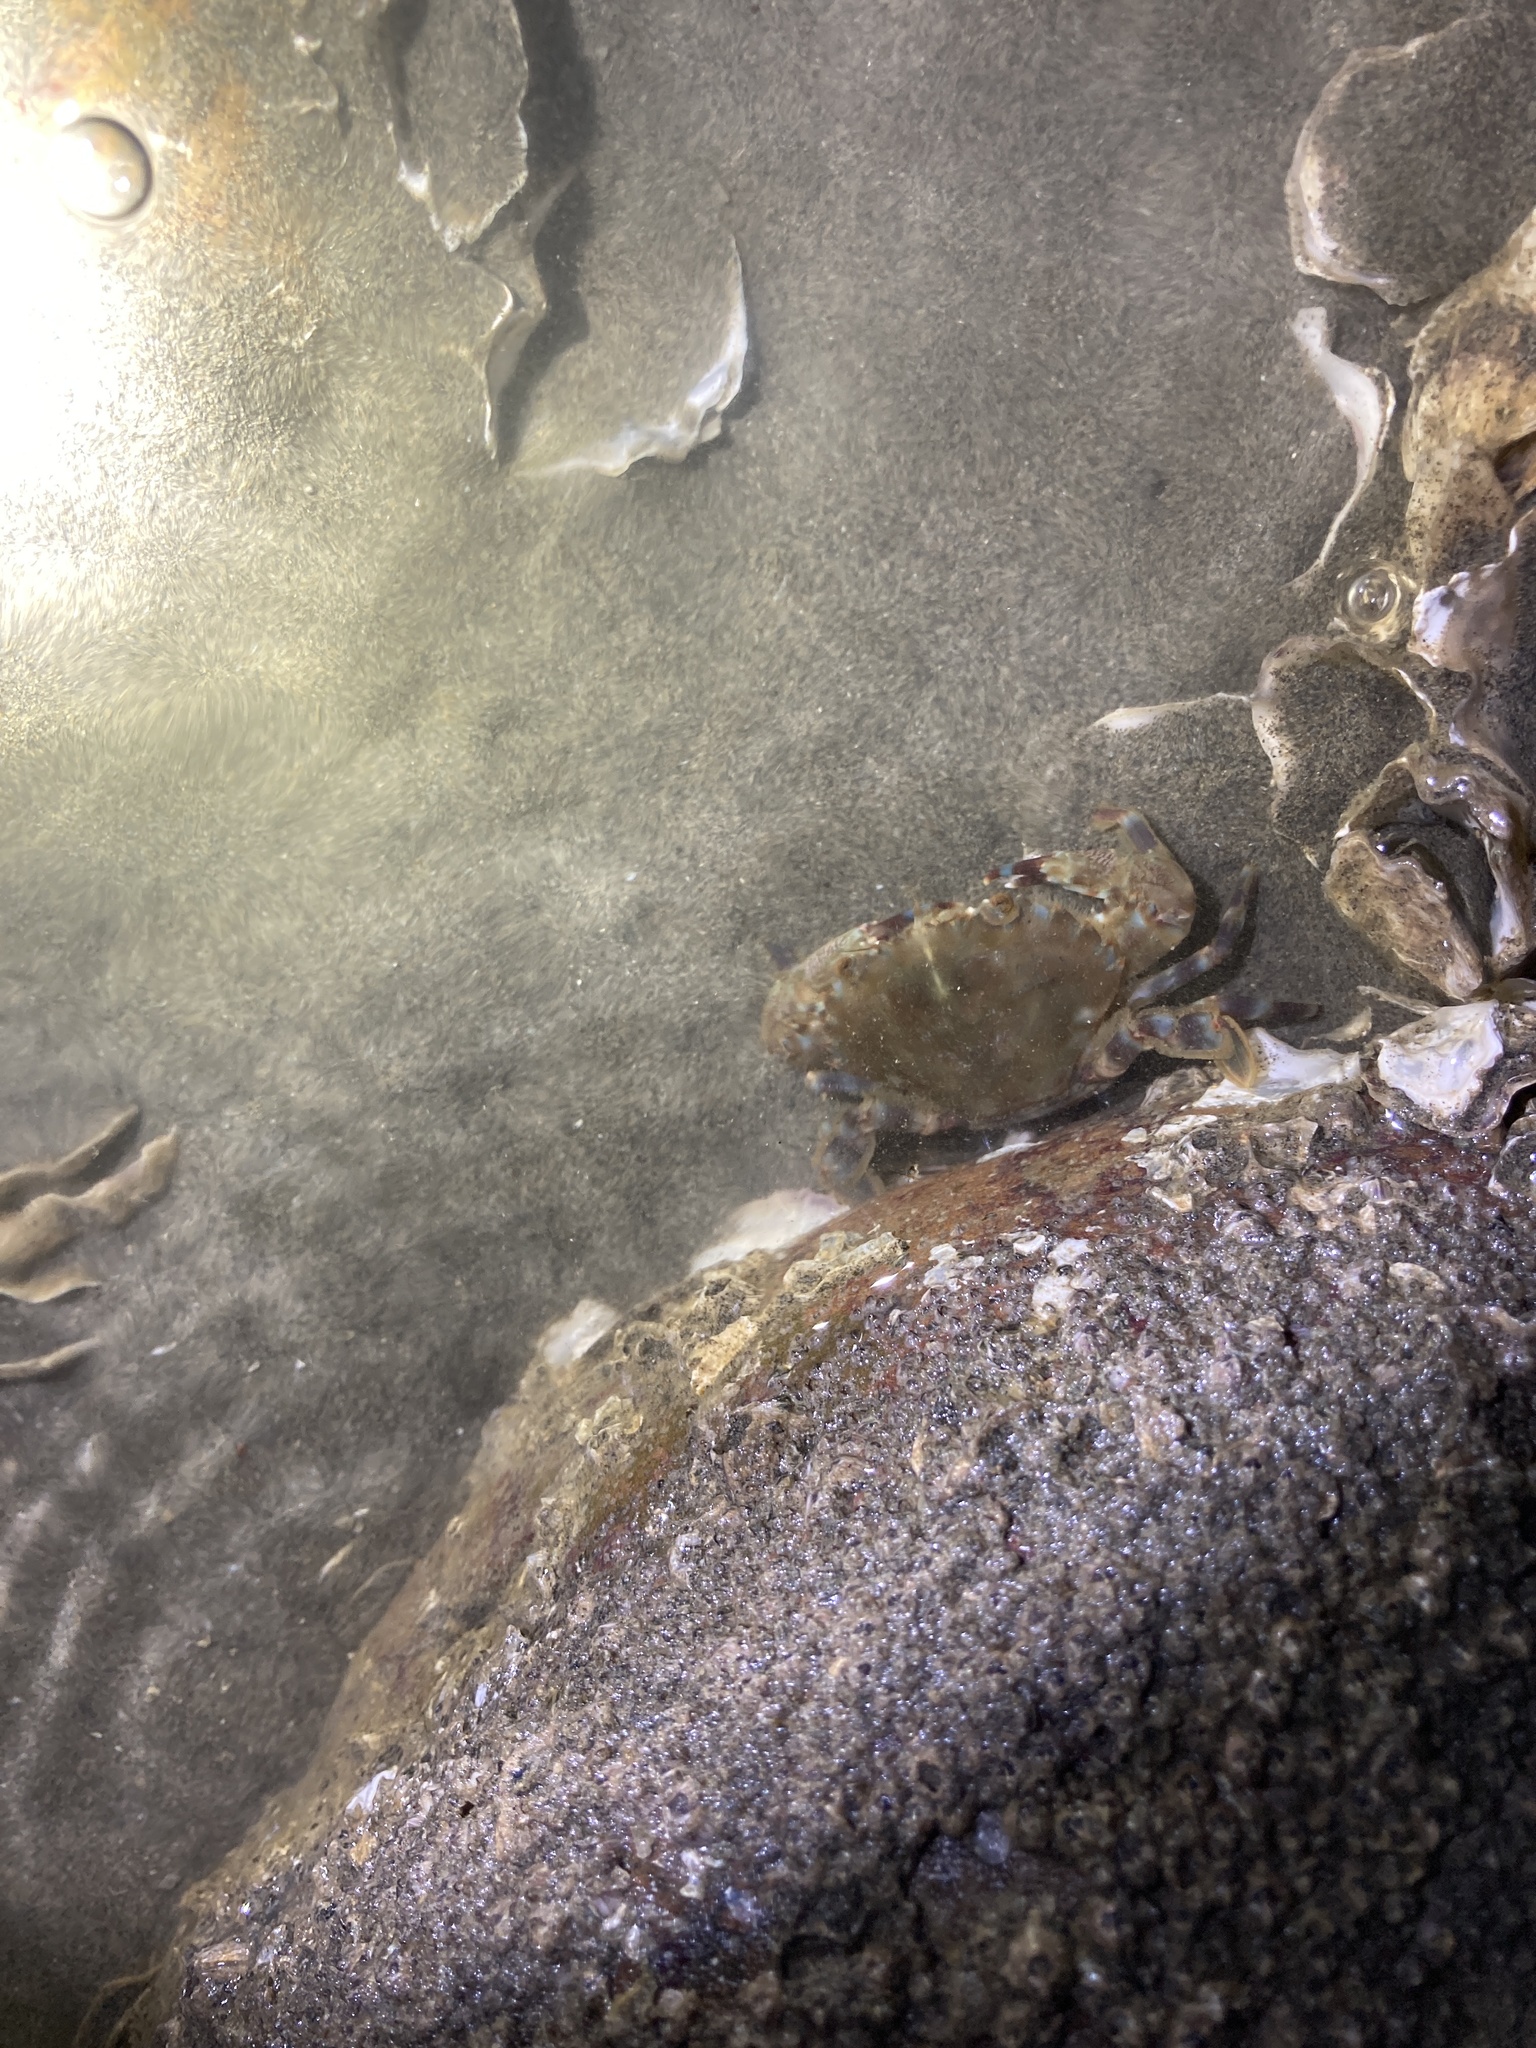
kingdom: Animalia
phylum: Arthropoda
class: Malacostraca
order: Decapoda
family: Portunidae
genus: Charybdis
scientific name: Charybdis annulata
